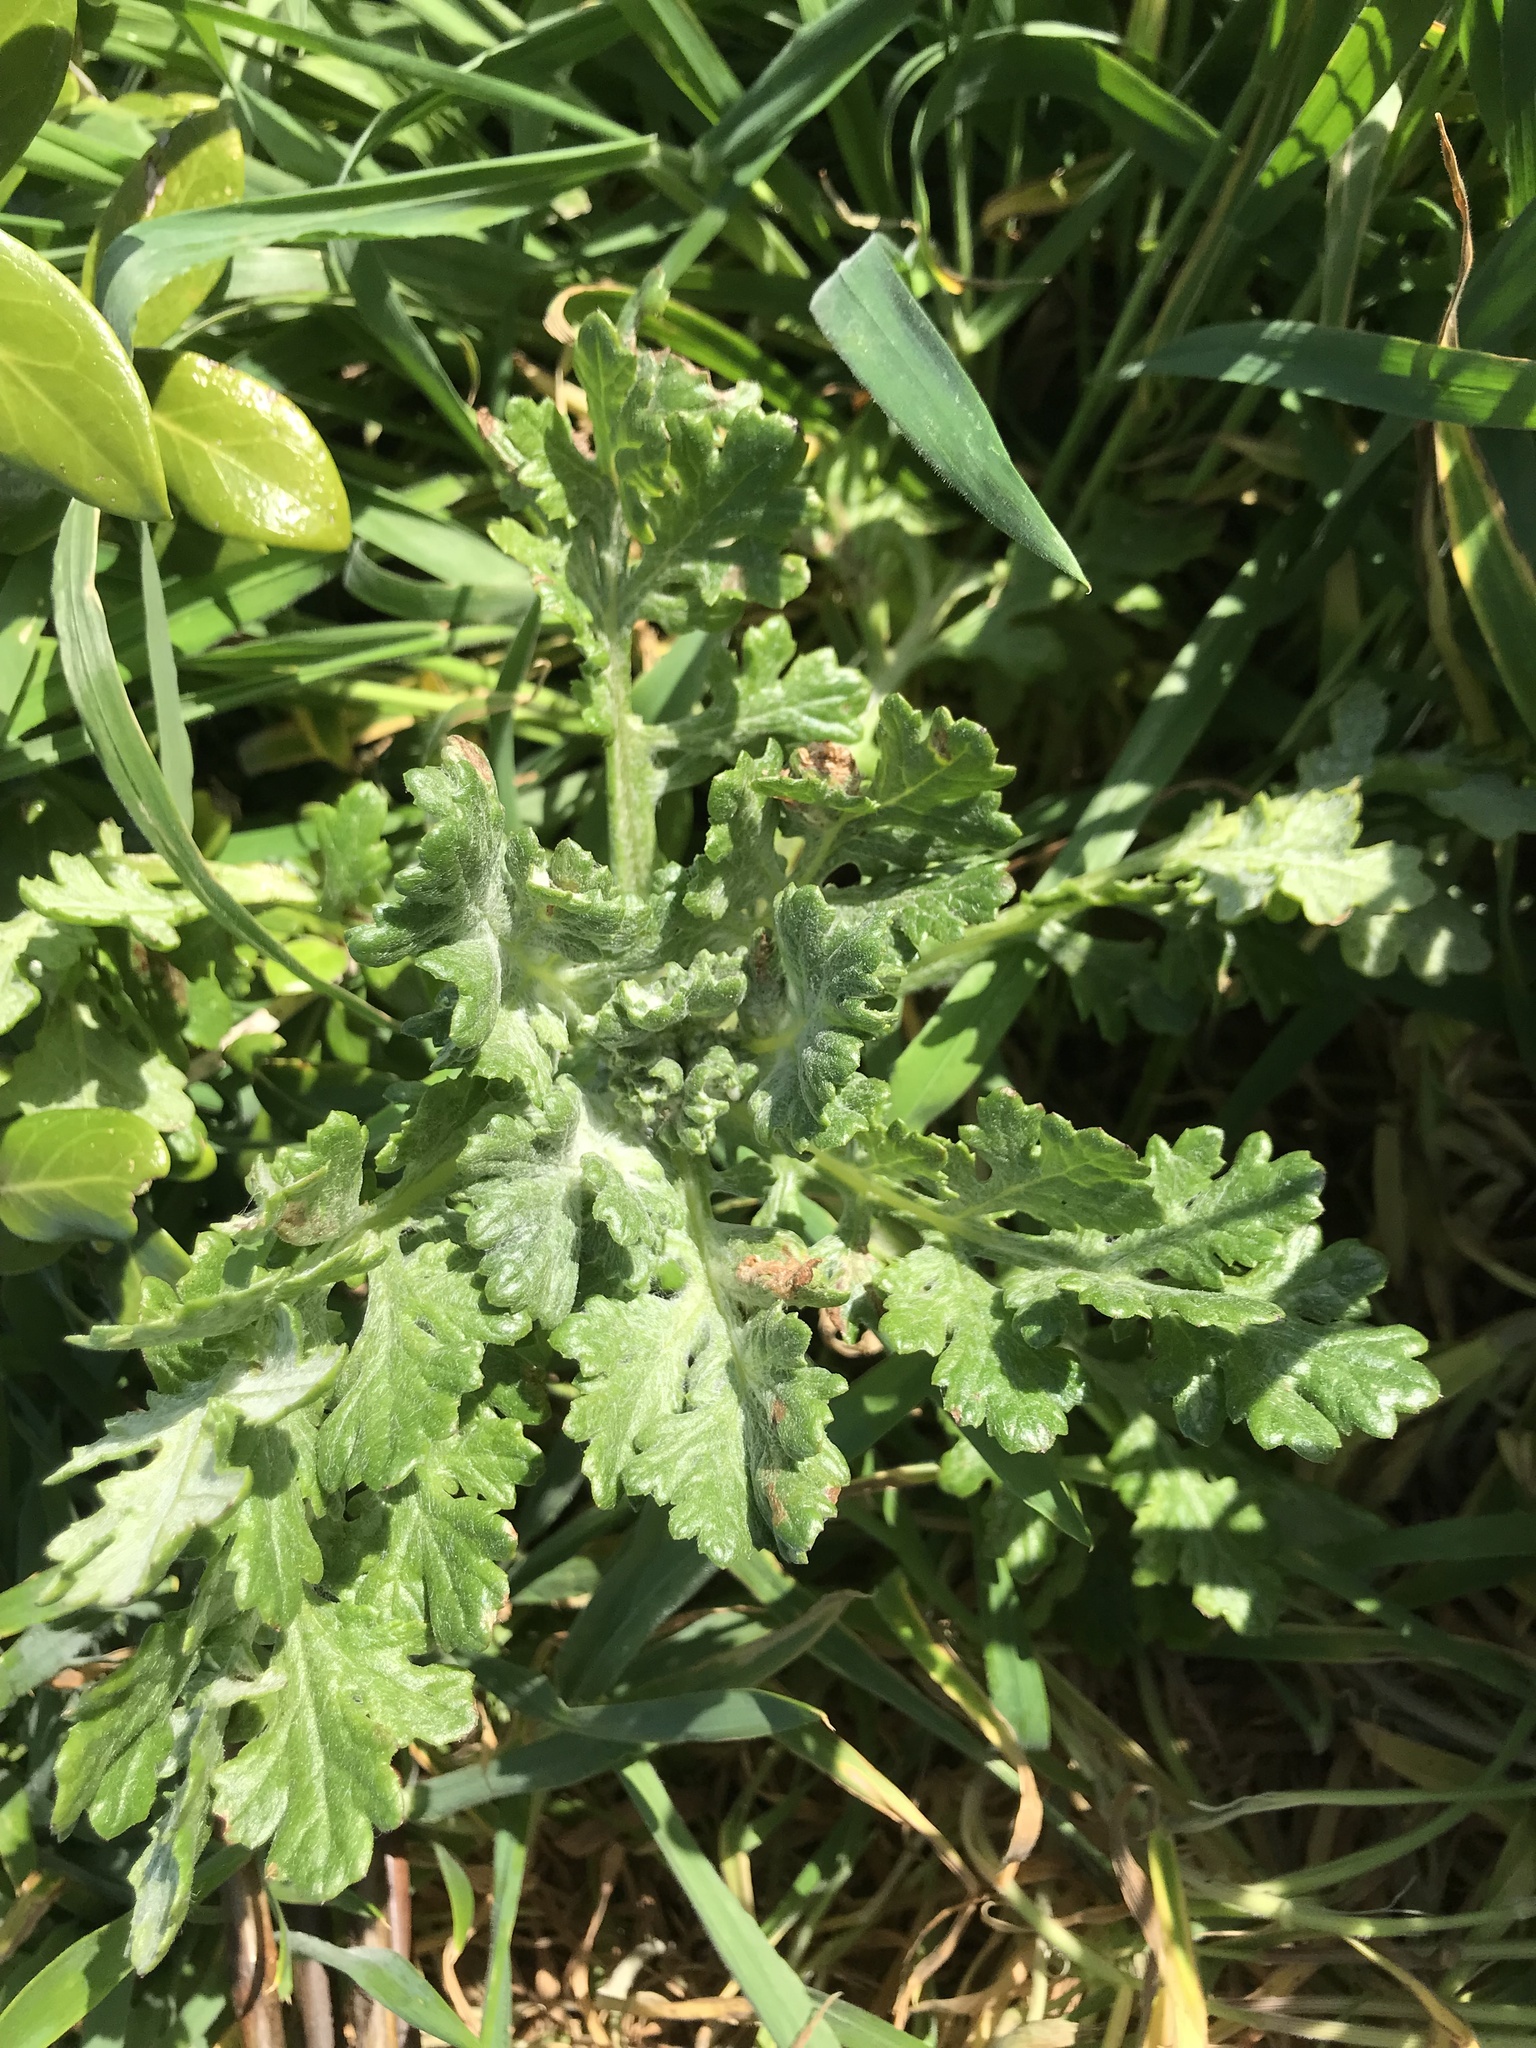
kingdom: Plantae
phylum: Tracheophyta
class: Magnoliopsida
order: Asterales
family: Asteraceae
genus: Senecio
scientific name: Senecio radiolatus
